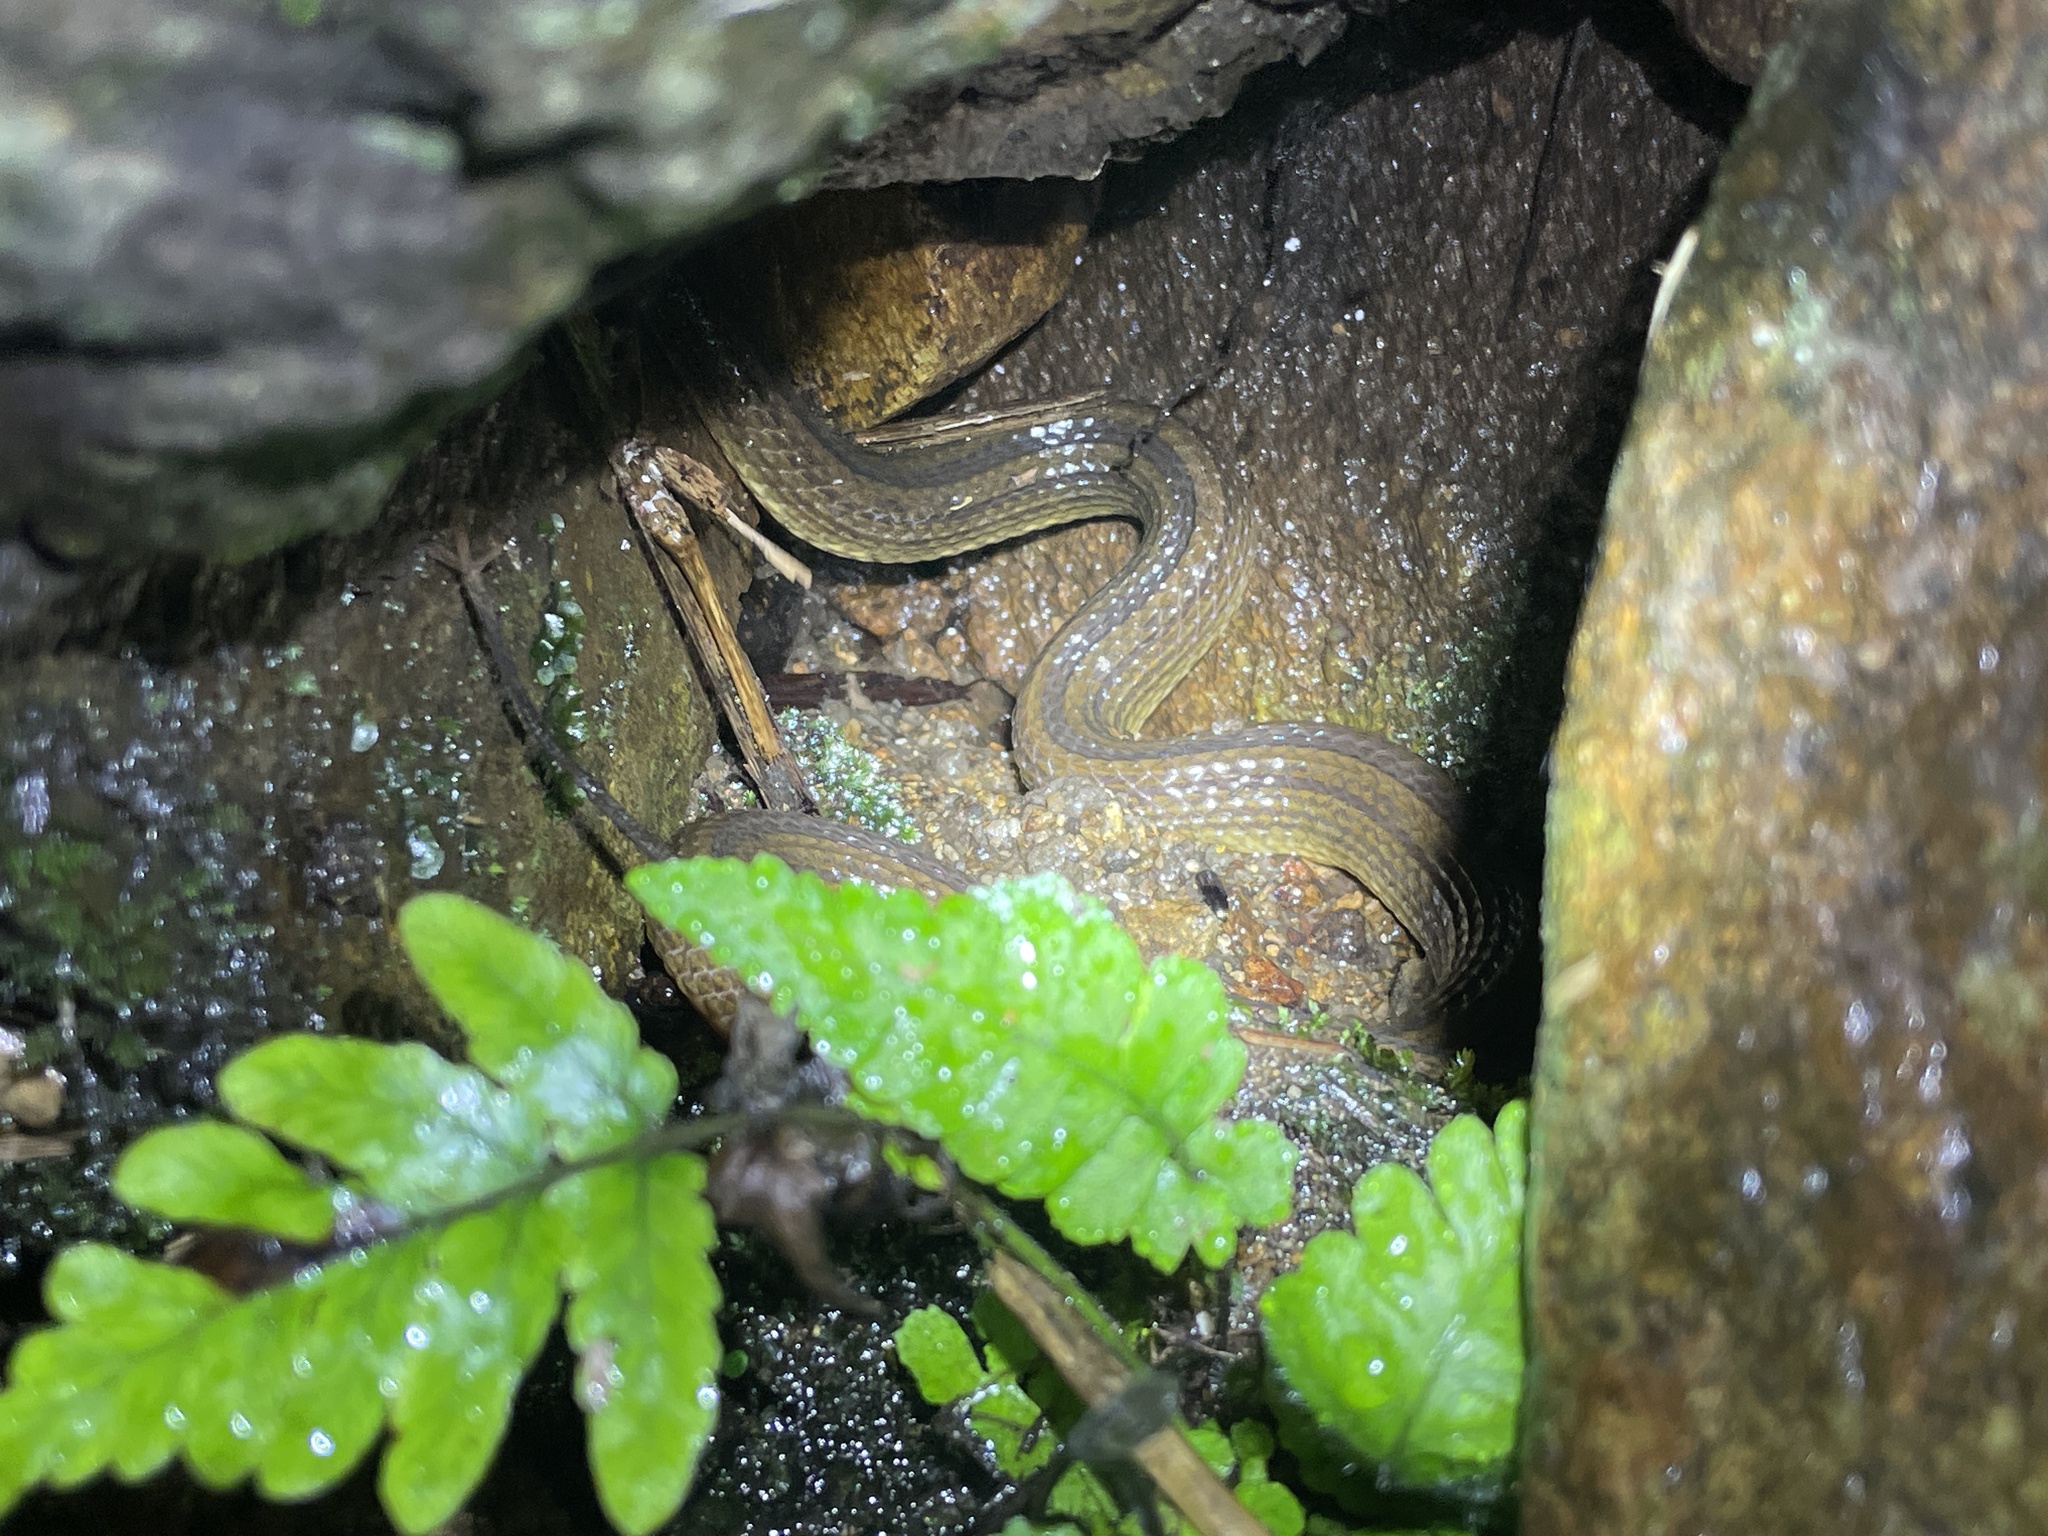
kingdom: Animalia
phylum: Chordata
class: Squamata
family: Colubridae
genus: Opisthotropis
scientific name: Opisthotropis kuatunensis
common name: Chinese mountain keelback
